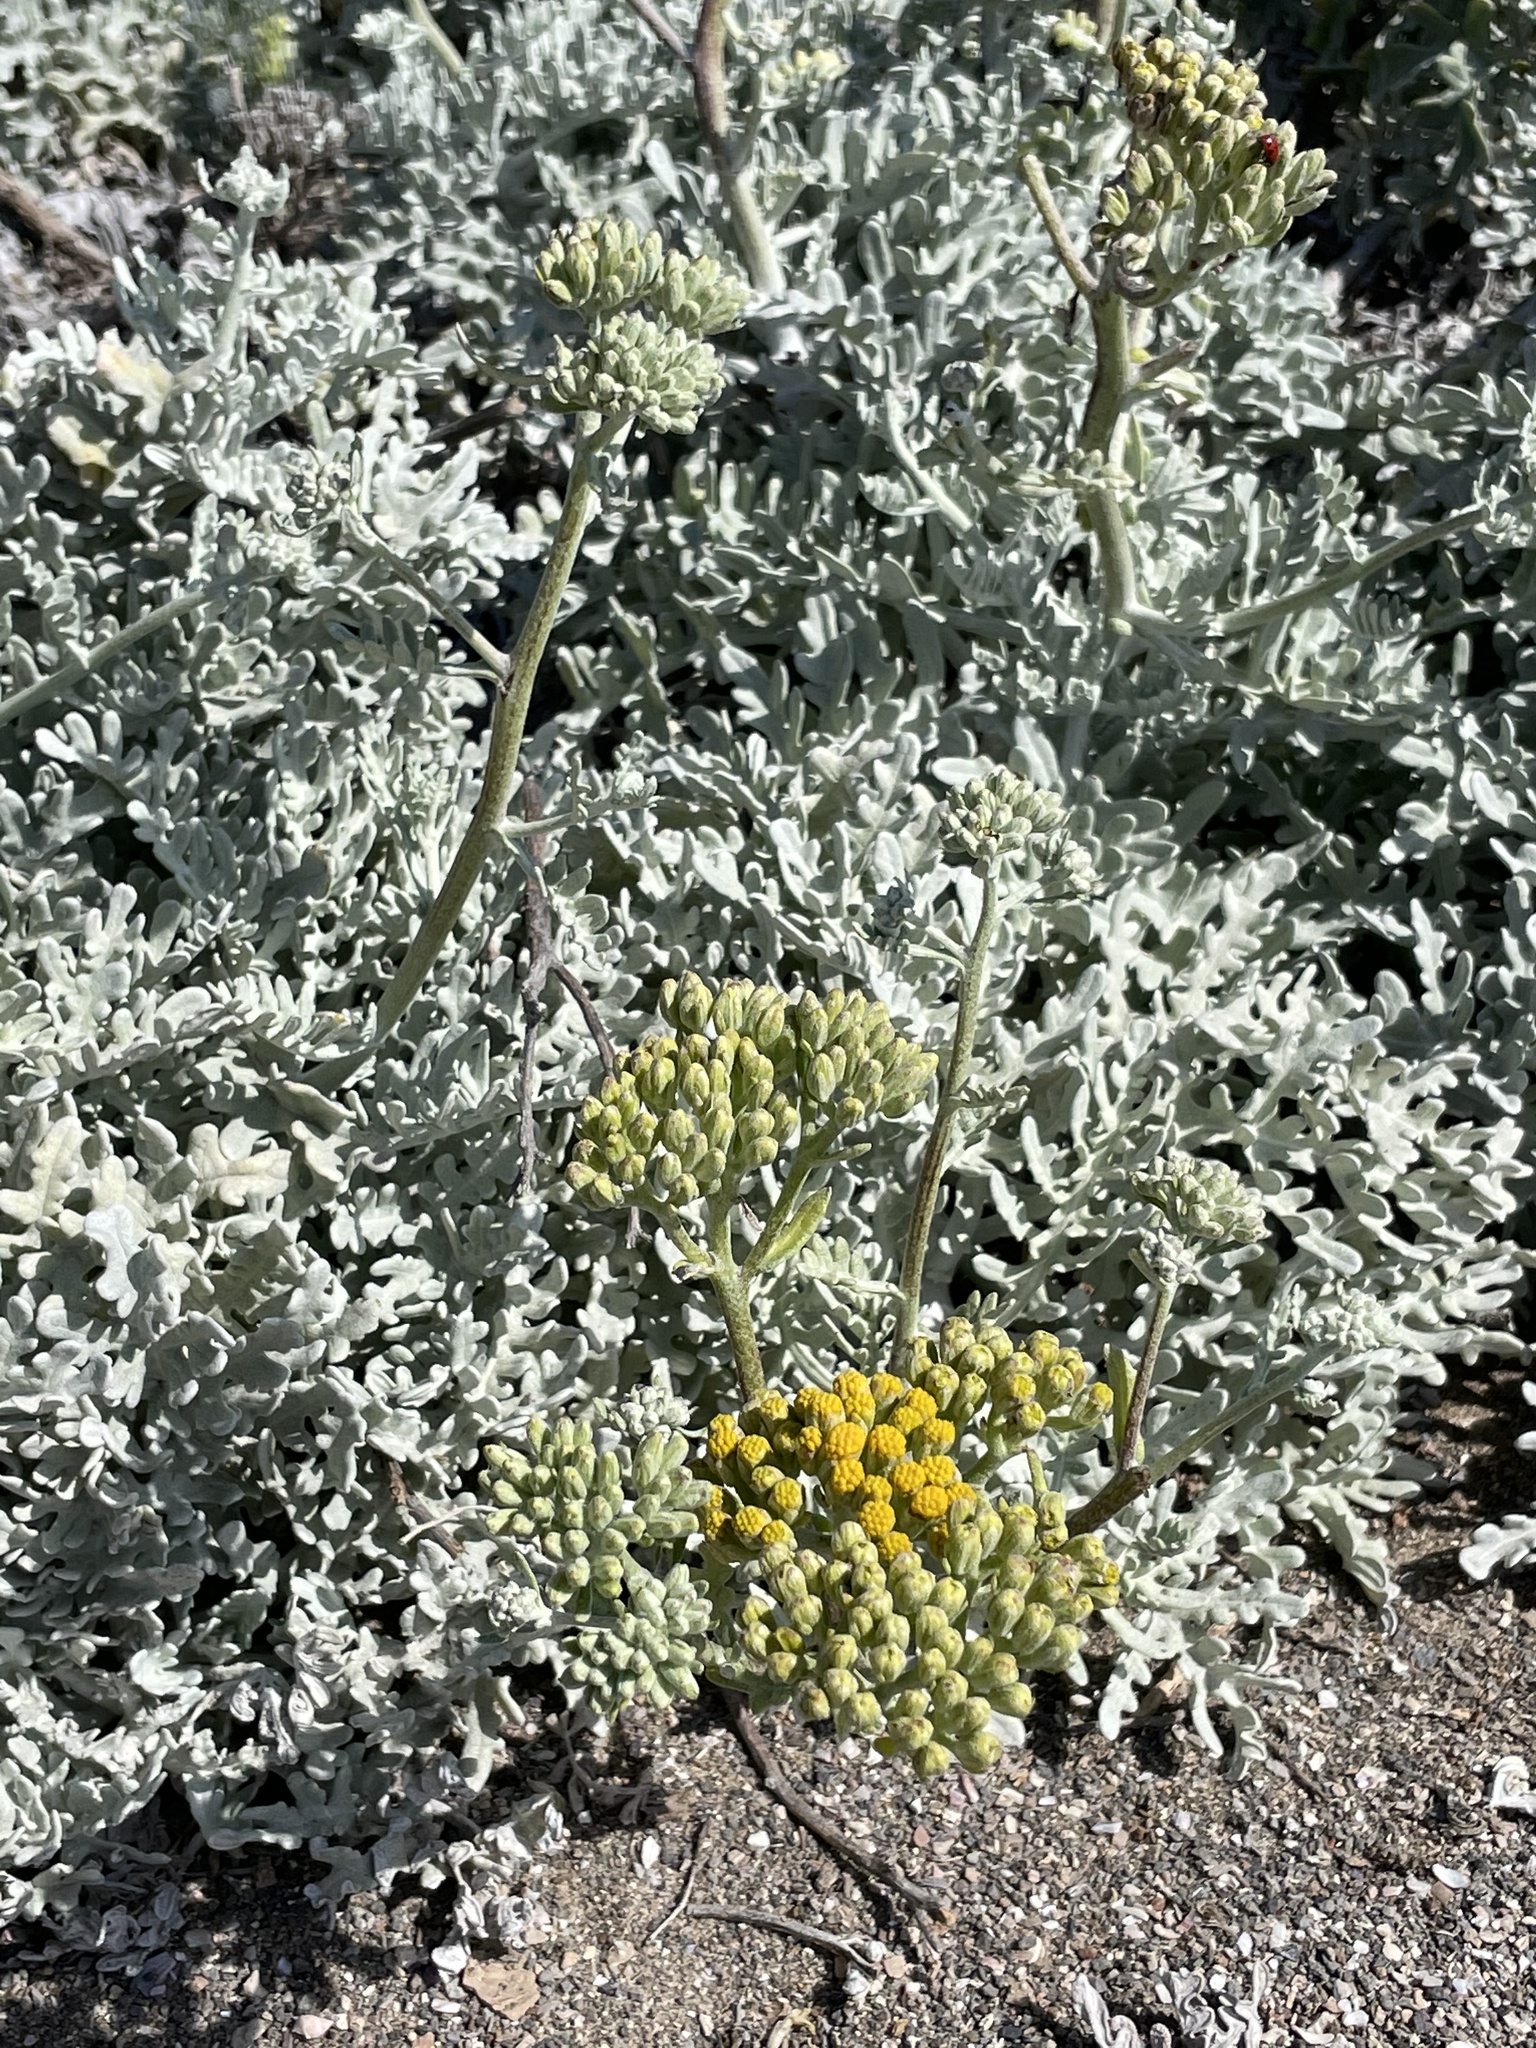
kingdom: Plantae
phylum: Tracheophyta
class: Magnoliopsida
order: Asterales
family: Asteraceae
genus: Constancea
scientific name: Constancea nevinii
